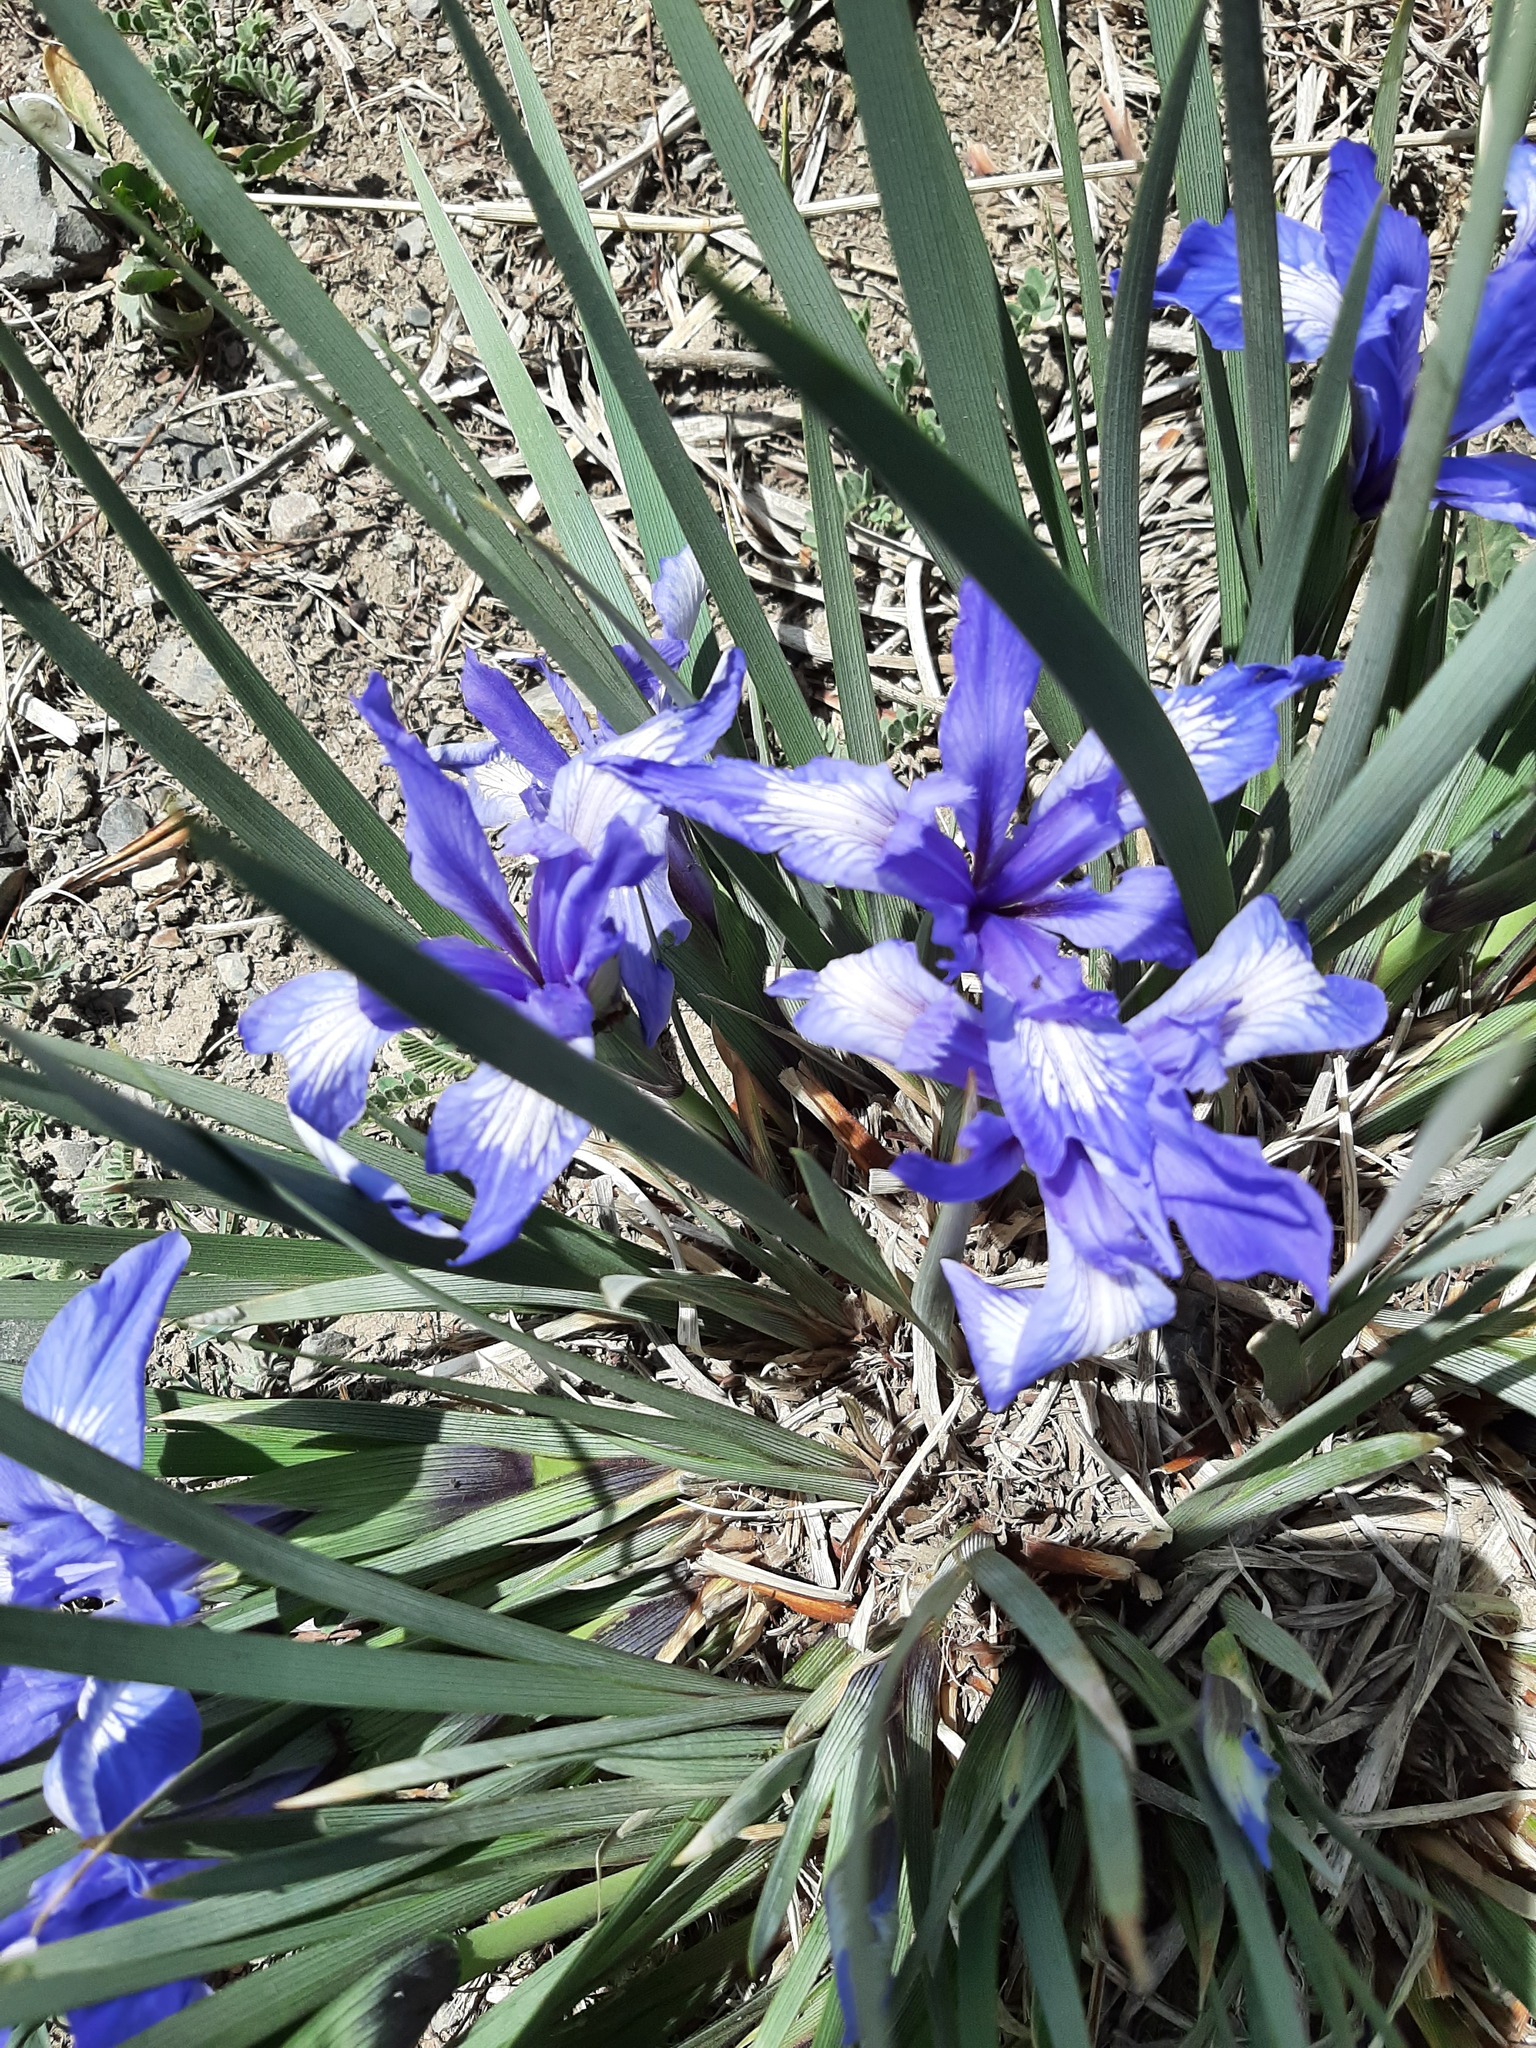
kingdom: Plantae
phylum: Tracheophyta
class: Liliopsida
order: Asparagales
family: Iridaceae
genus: Iris
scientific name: Iris lactea
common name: White-flower chinese iris
